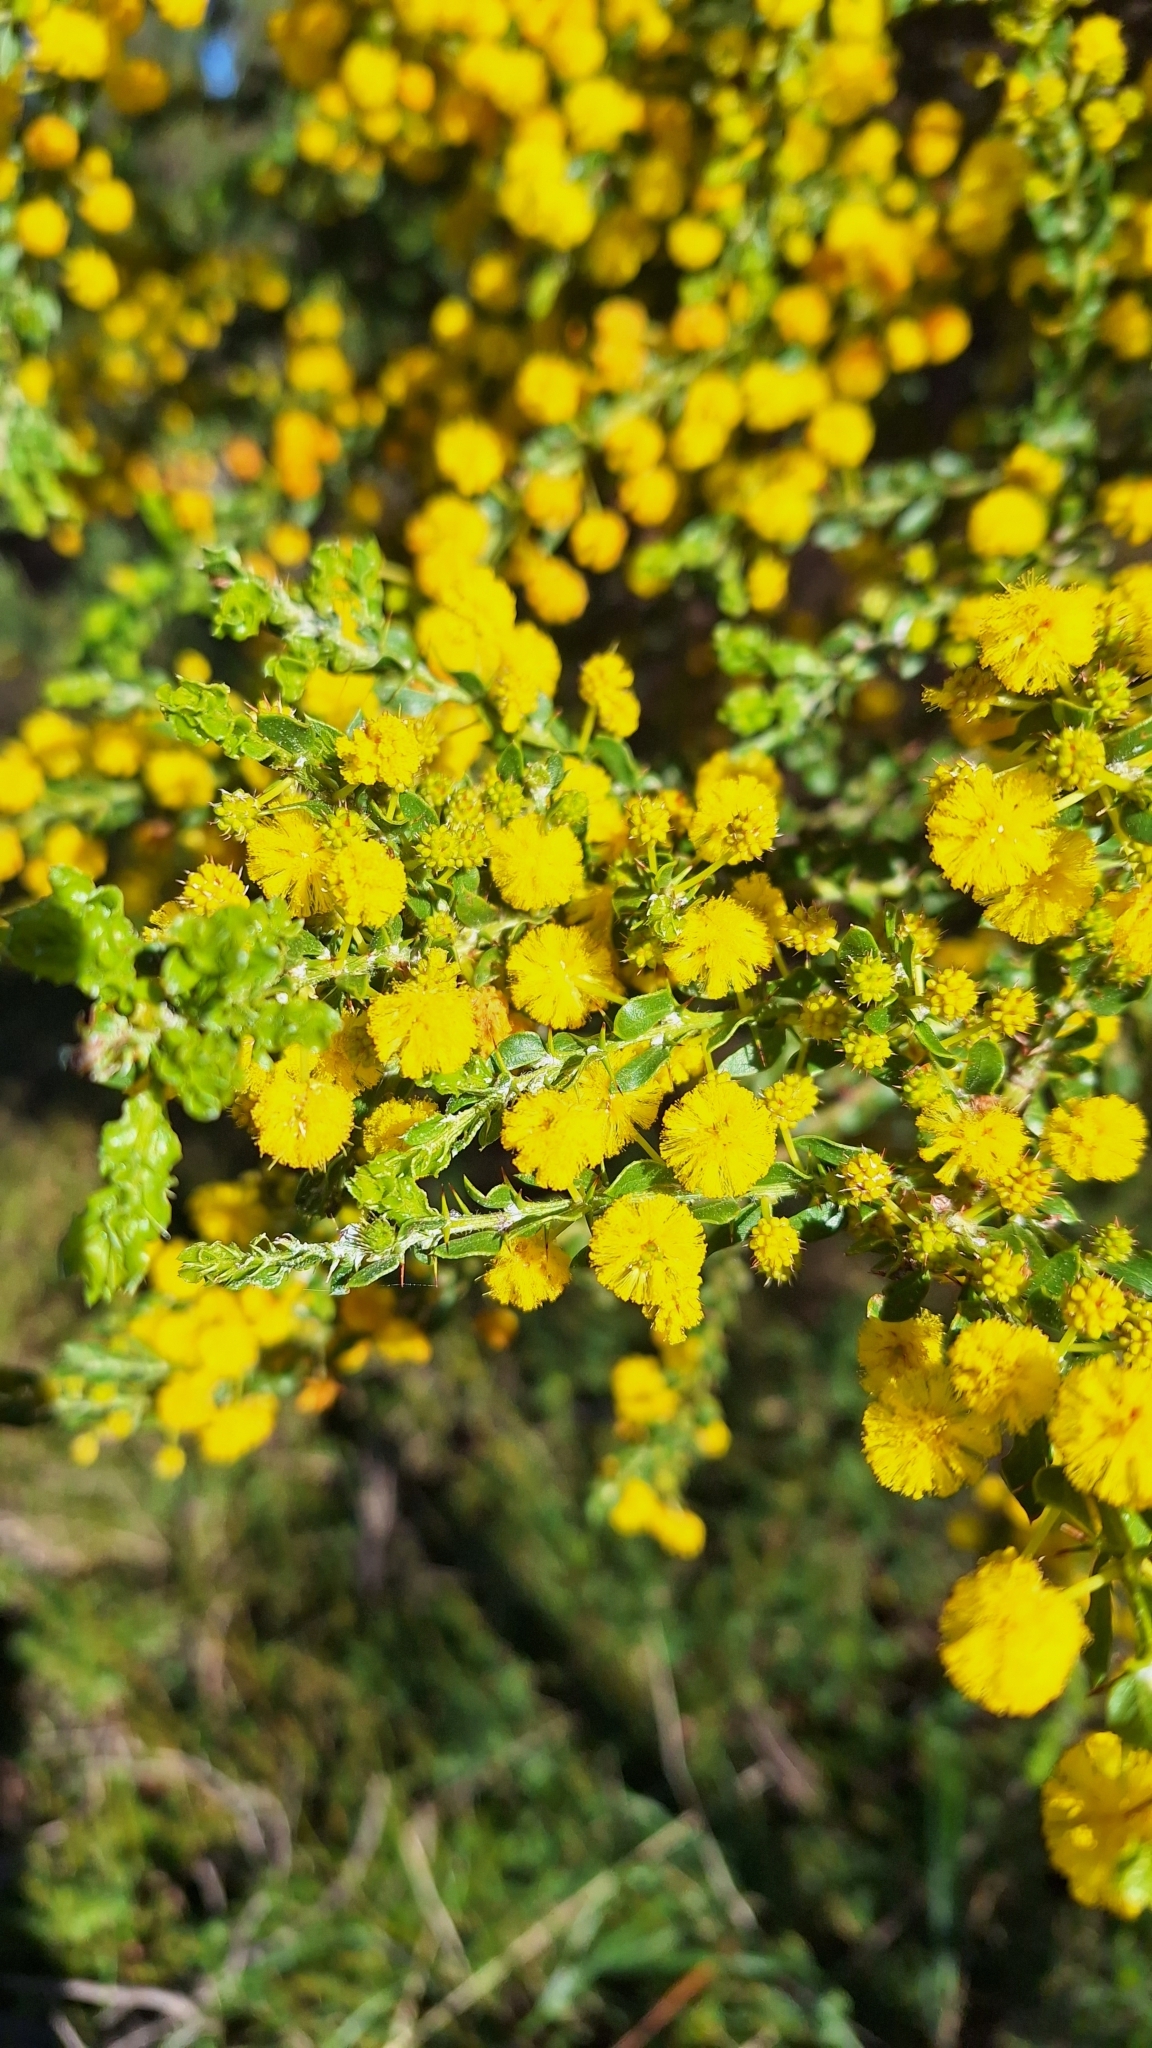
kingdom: Plantae
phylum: Tracheophyta
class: Magnoliopsida
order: Fabales
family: Fabaceae
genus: Acacia
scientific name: Acacia paradoxa
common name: Paradox acacia
